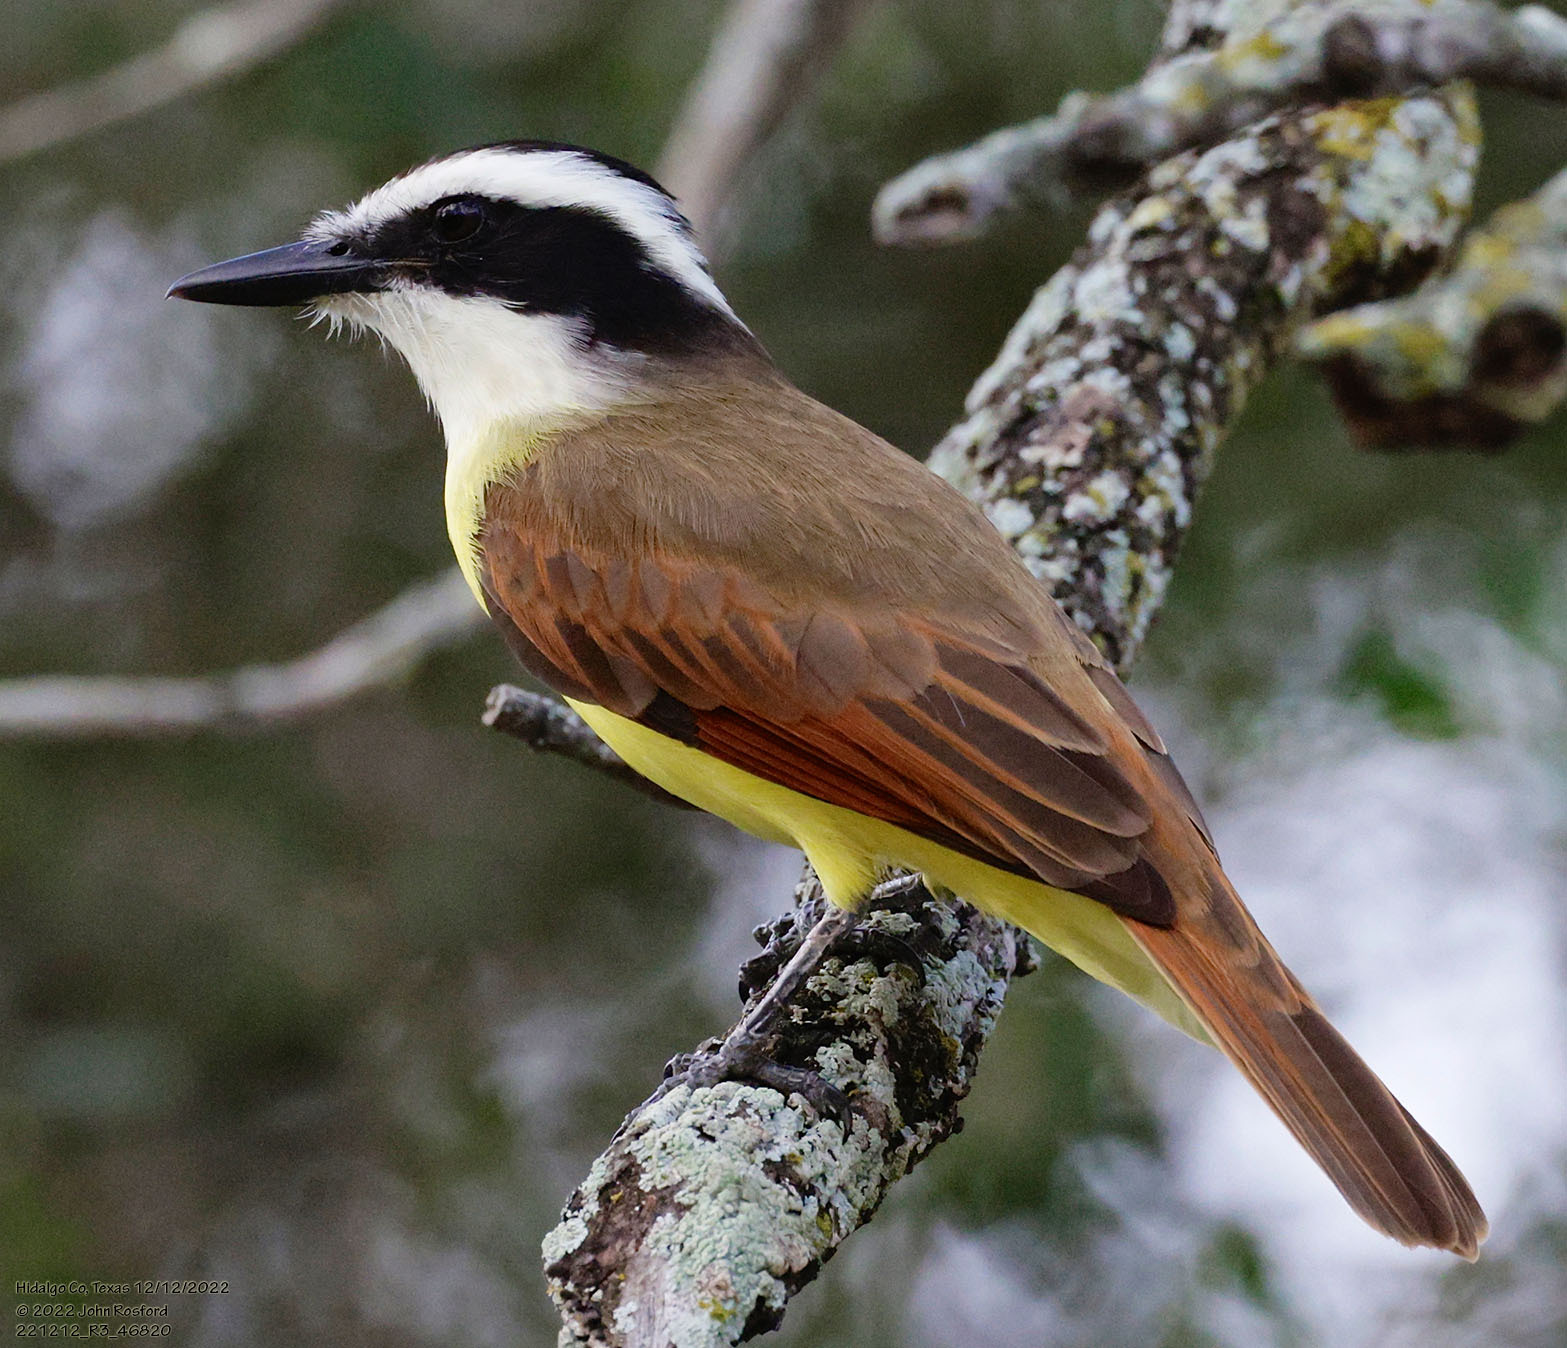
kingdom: Animalia
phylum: Chordata
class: Aves
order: Passeriformes
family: Tyrannidae
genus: Pitangus
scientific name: Pitangus sulphuratus
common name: Great kiskadee
